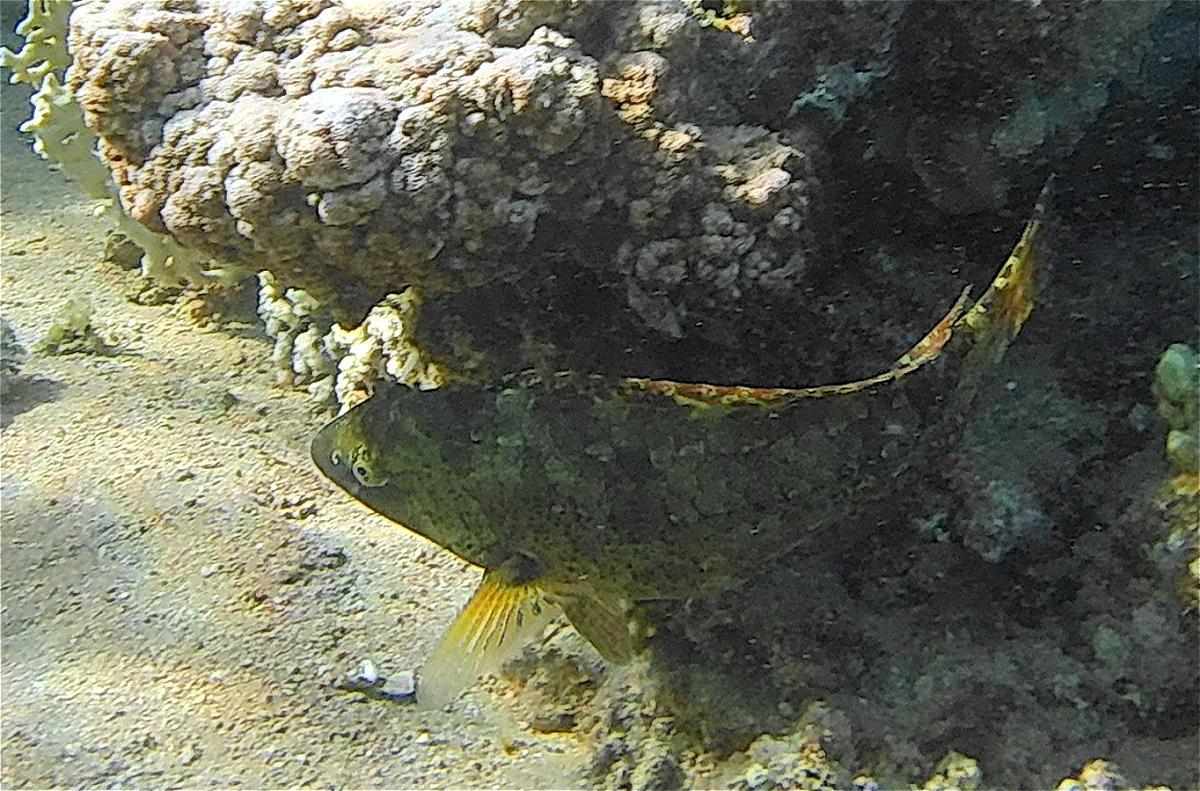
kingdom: Animalia
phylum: Chordata
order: Perciformes
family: Scaridae
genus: Calotomus
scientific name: Calotomus viridescens
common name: Dotted parrotfish
